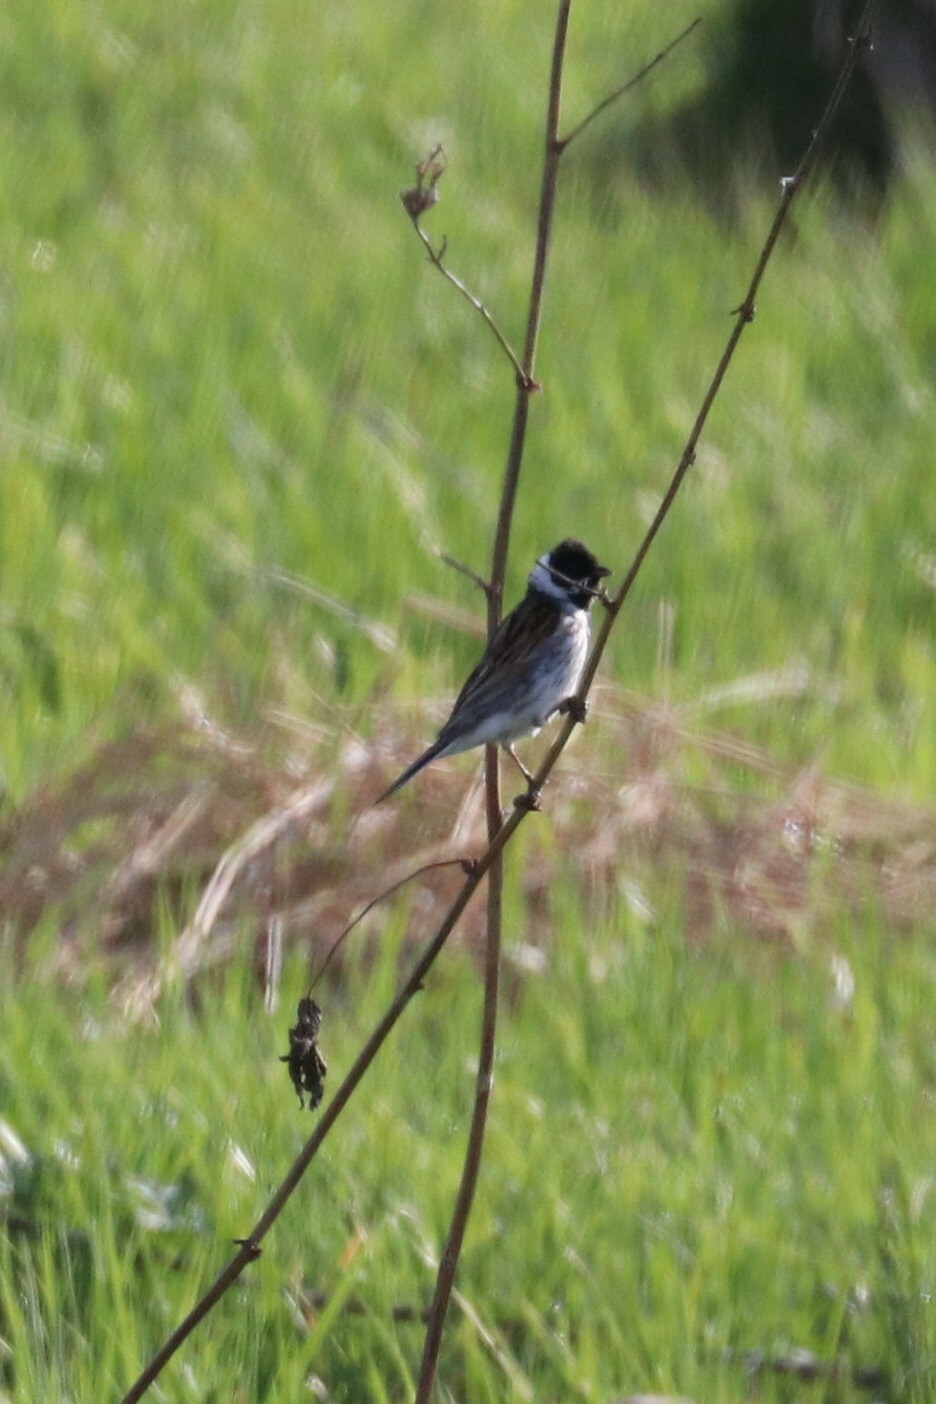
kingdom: Animalia
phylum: Chordata
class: Aves
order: Passeriformes
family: Emberizidae
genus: Emberiza
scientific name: Emberiza schoeniclus
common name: Reed bunting
